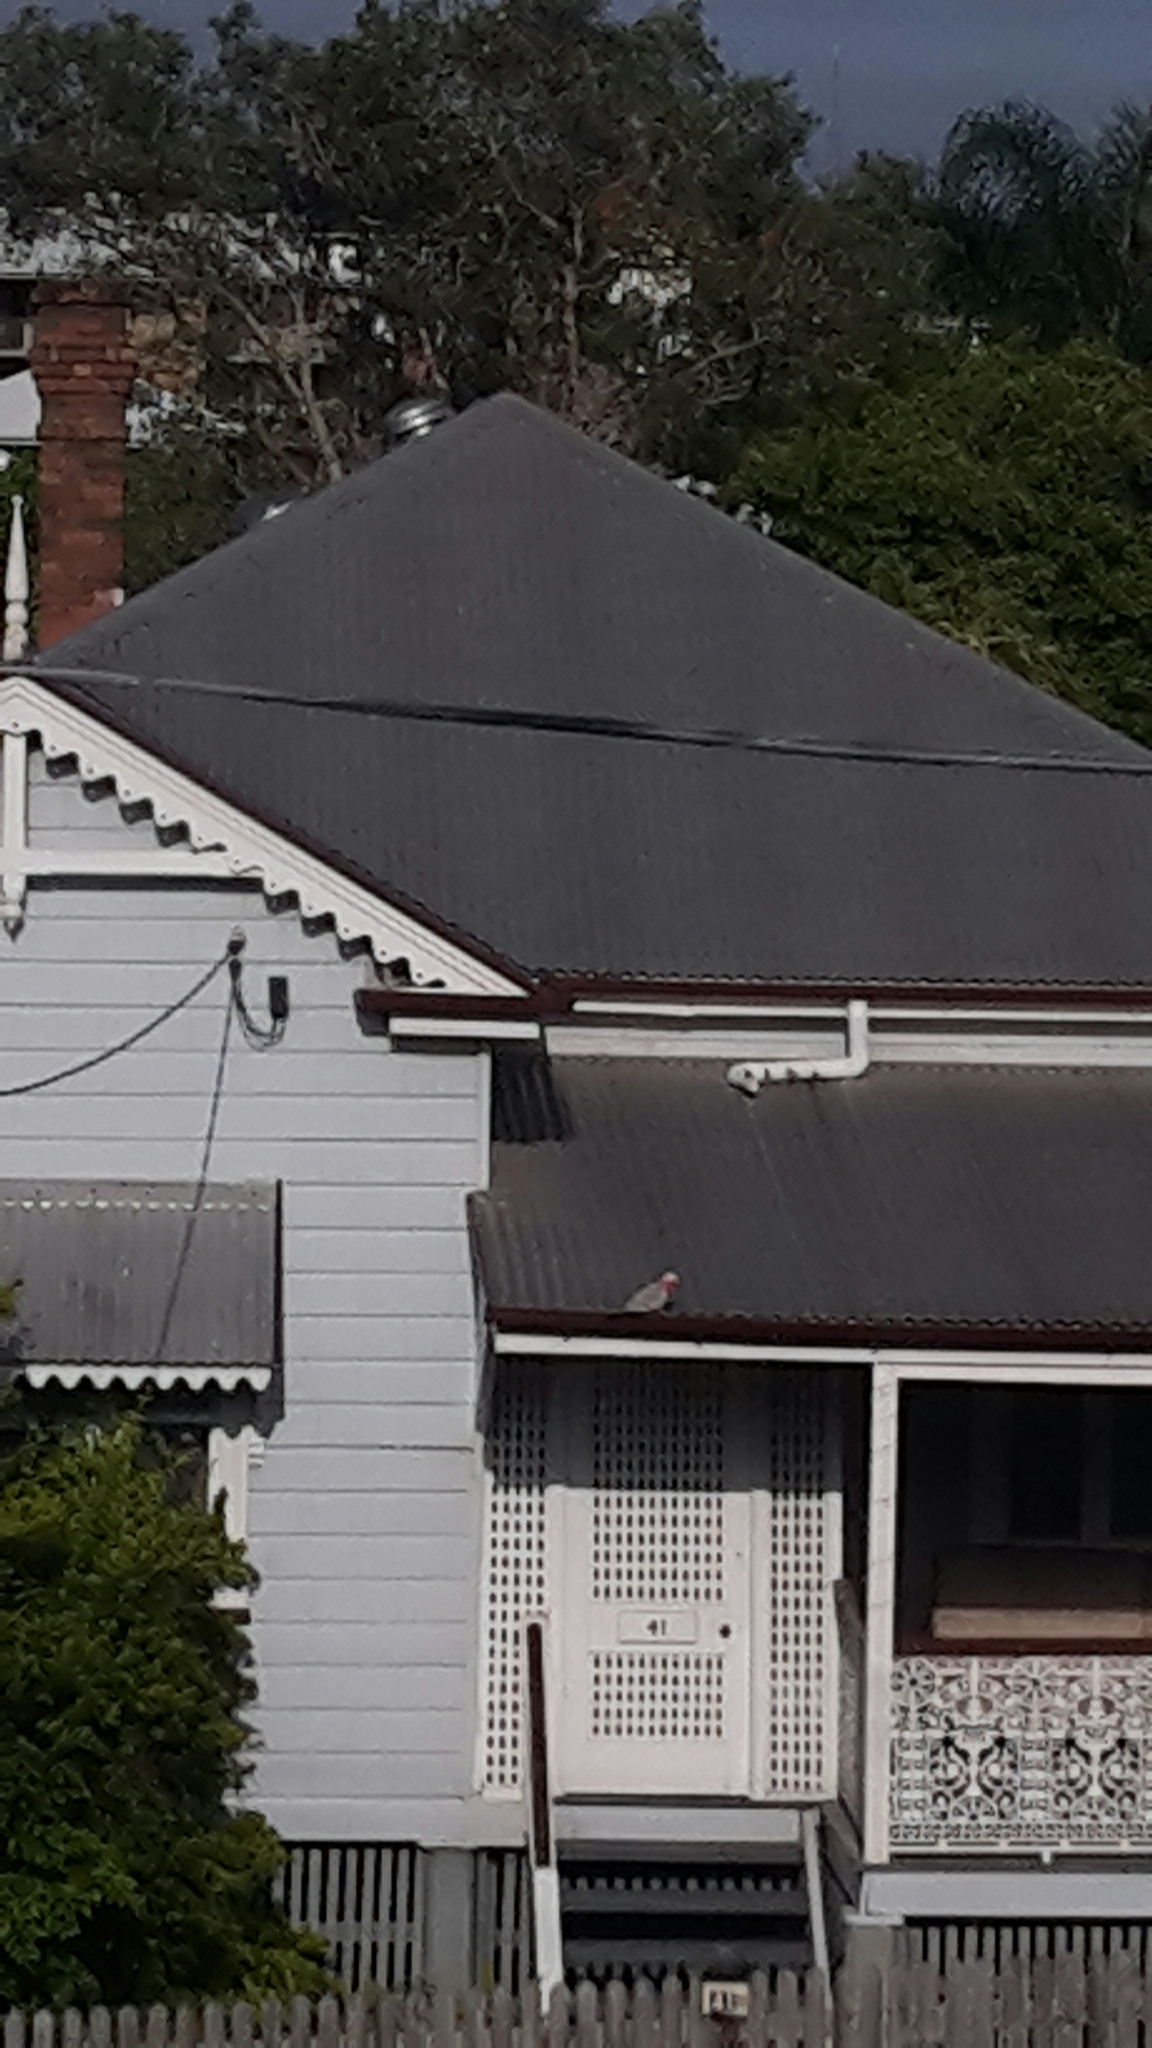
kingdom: Animalia
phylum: Chordata
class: Aves
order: Psittaciformes
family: Psittacidae
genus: Eolophus
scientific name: Eolophus roseicapilla
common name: Galah
